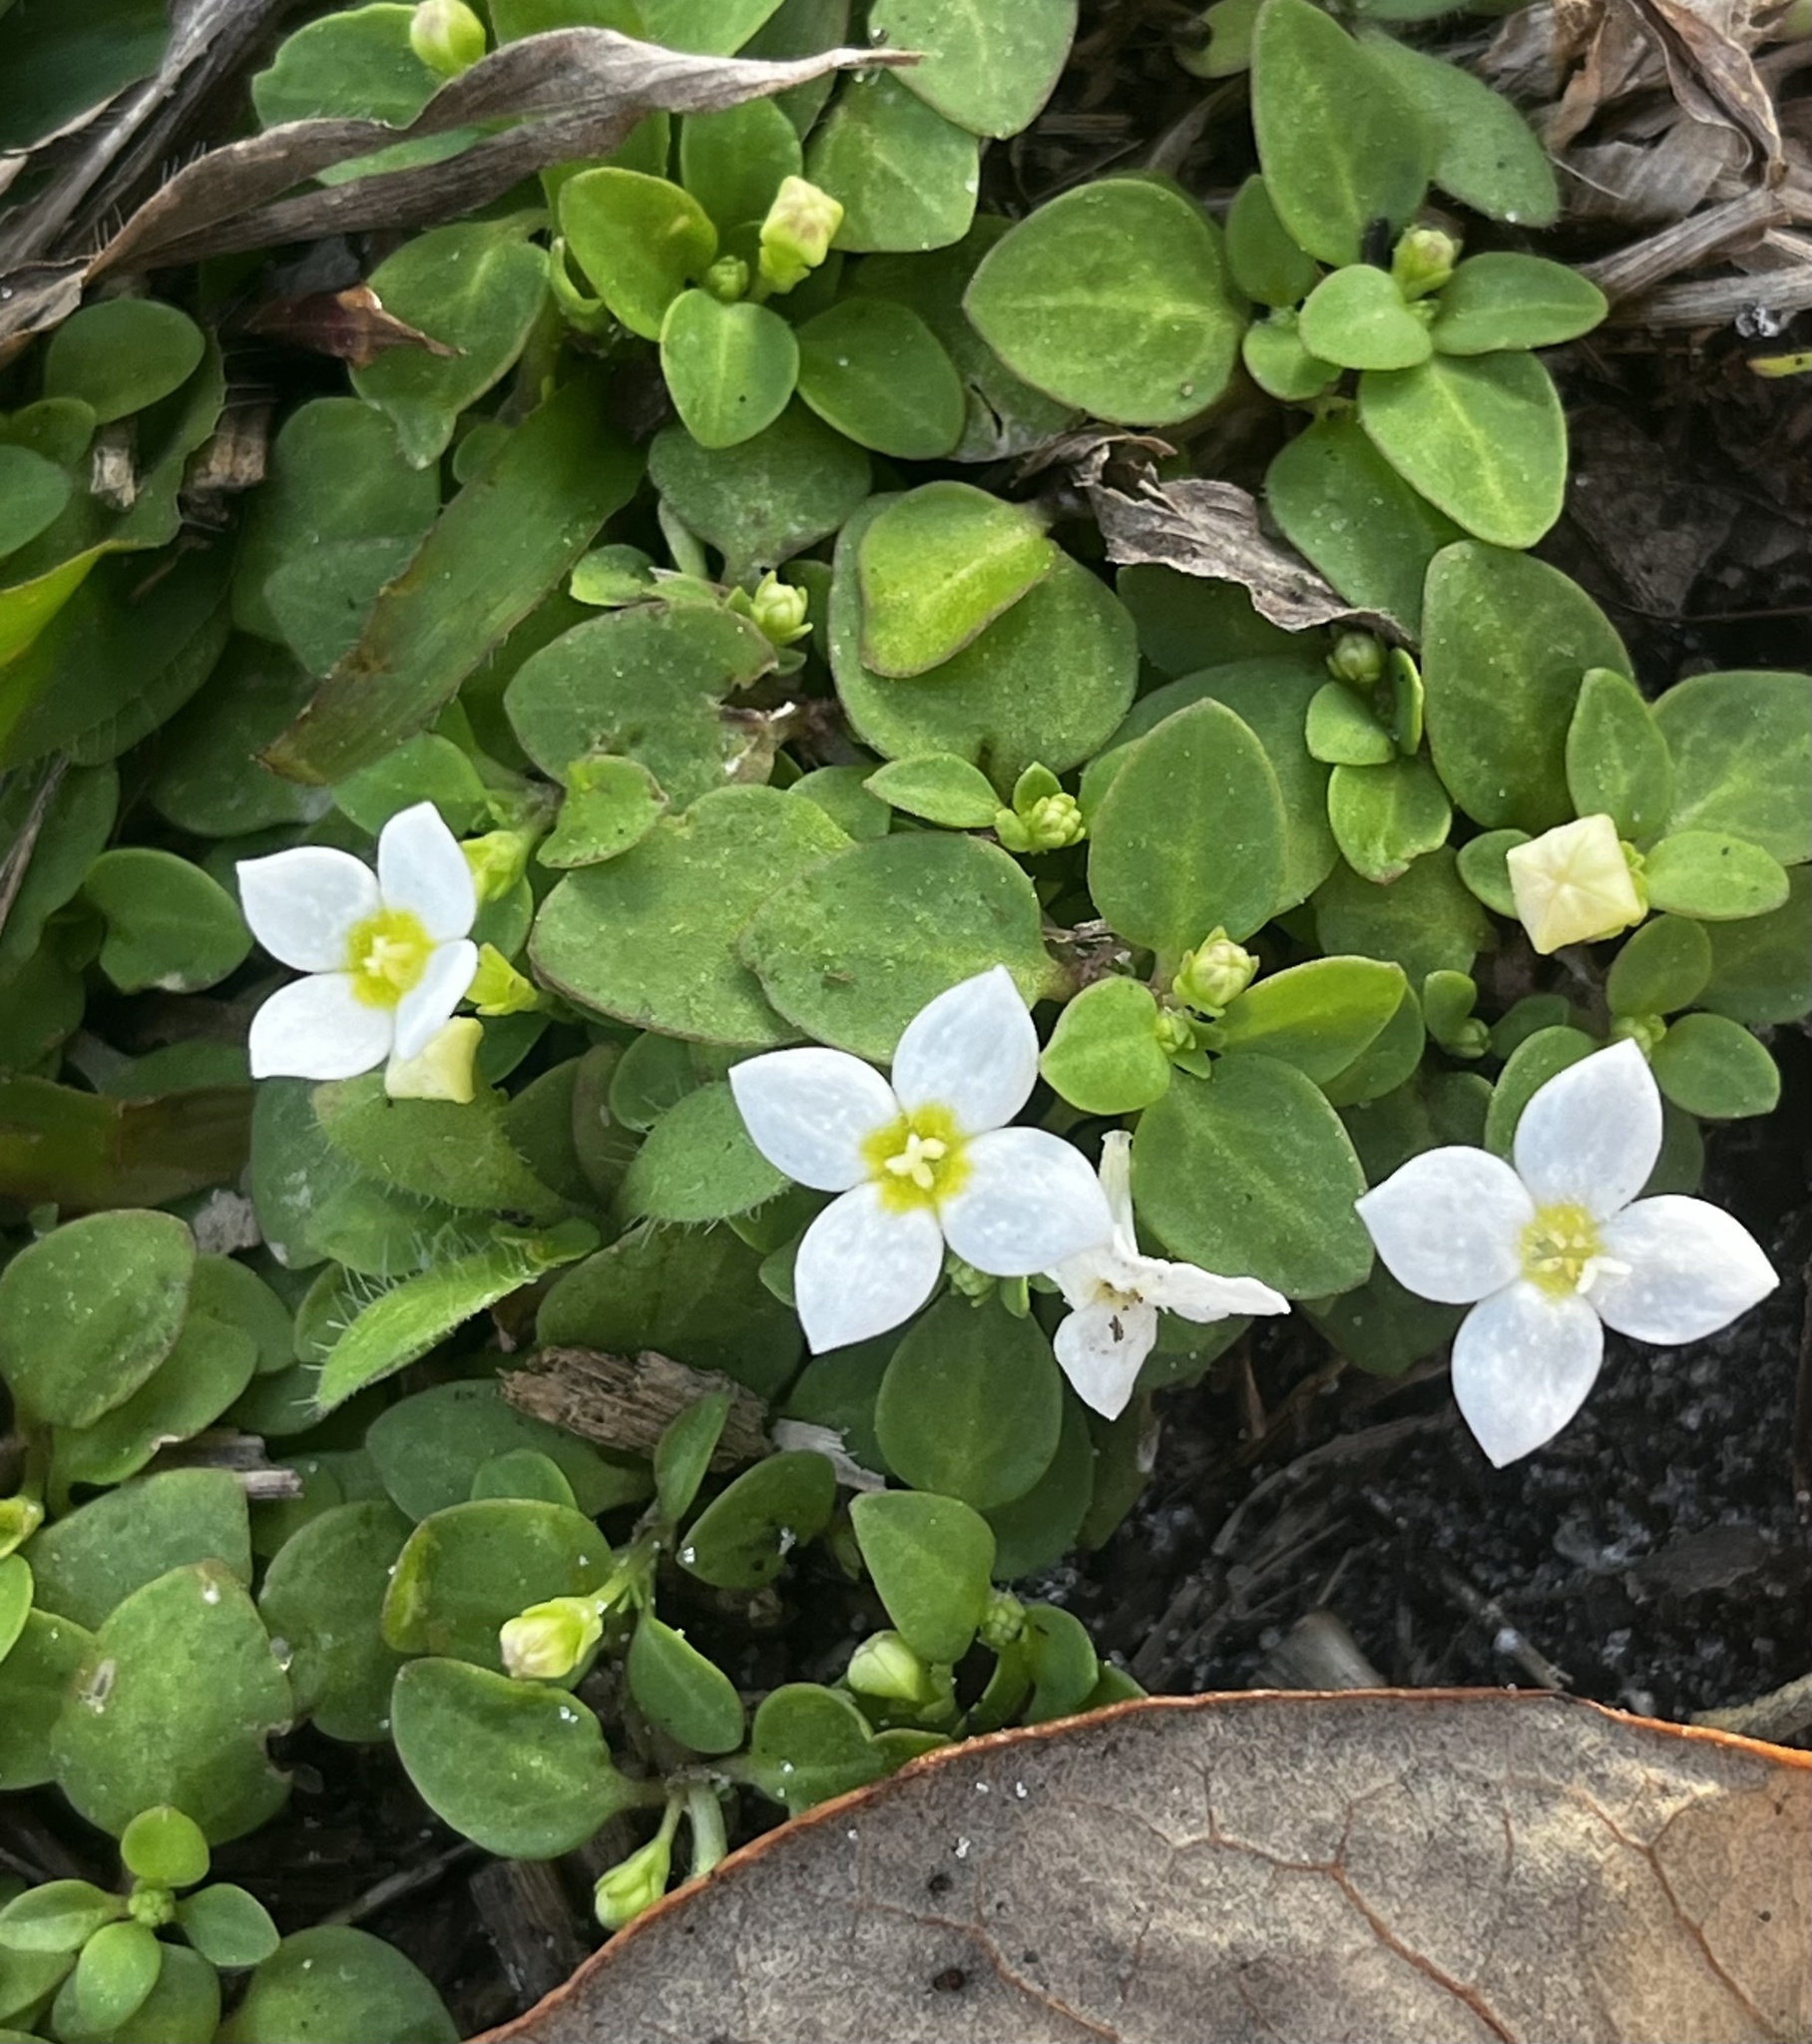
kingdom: Plantae
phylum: Tracheophyta
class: Magnoliopsida
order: Gentianales
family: Rubiaceae
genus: Houstonia
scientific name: Houstonia procumbens
